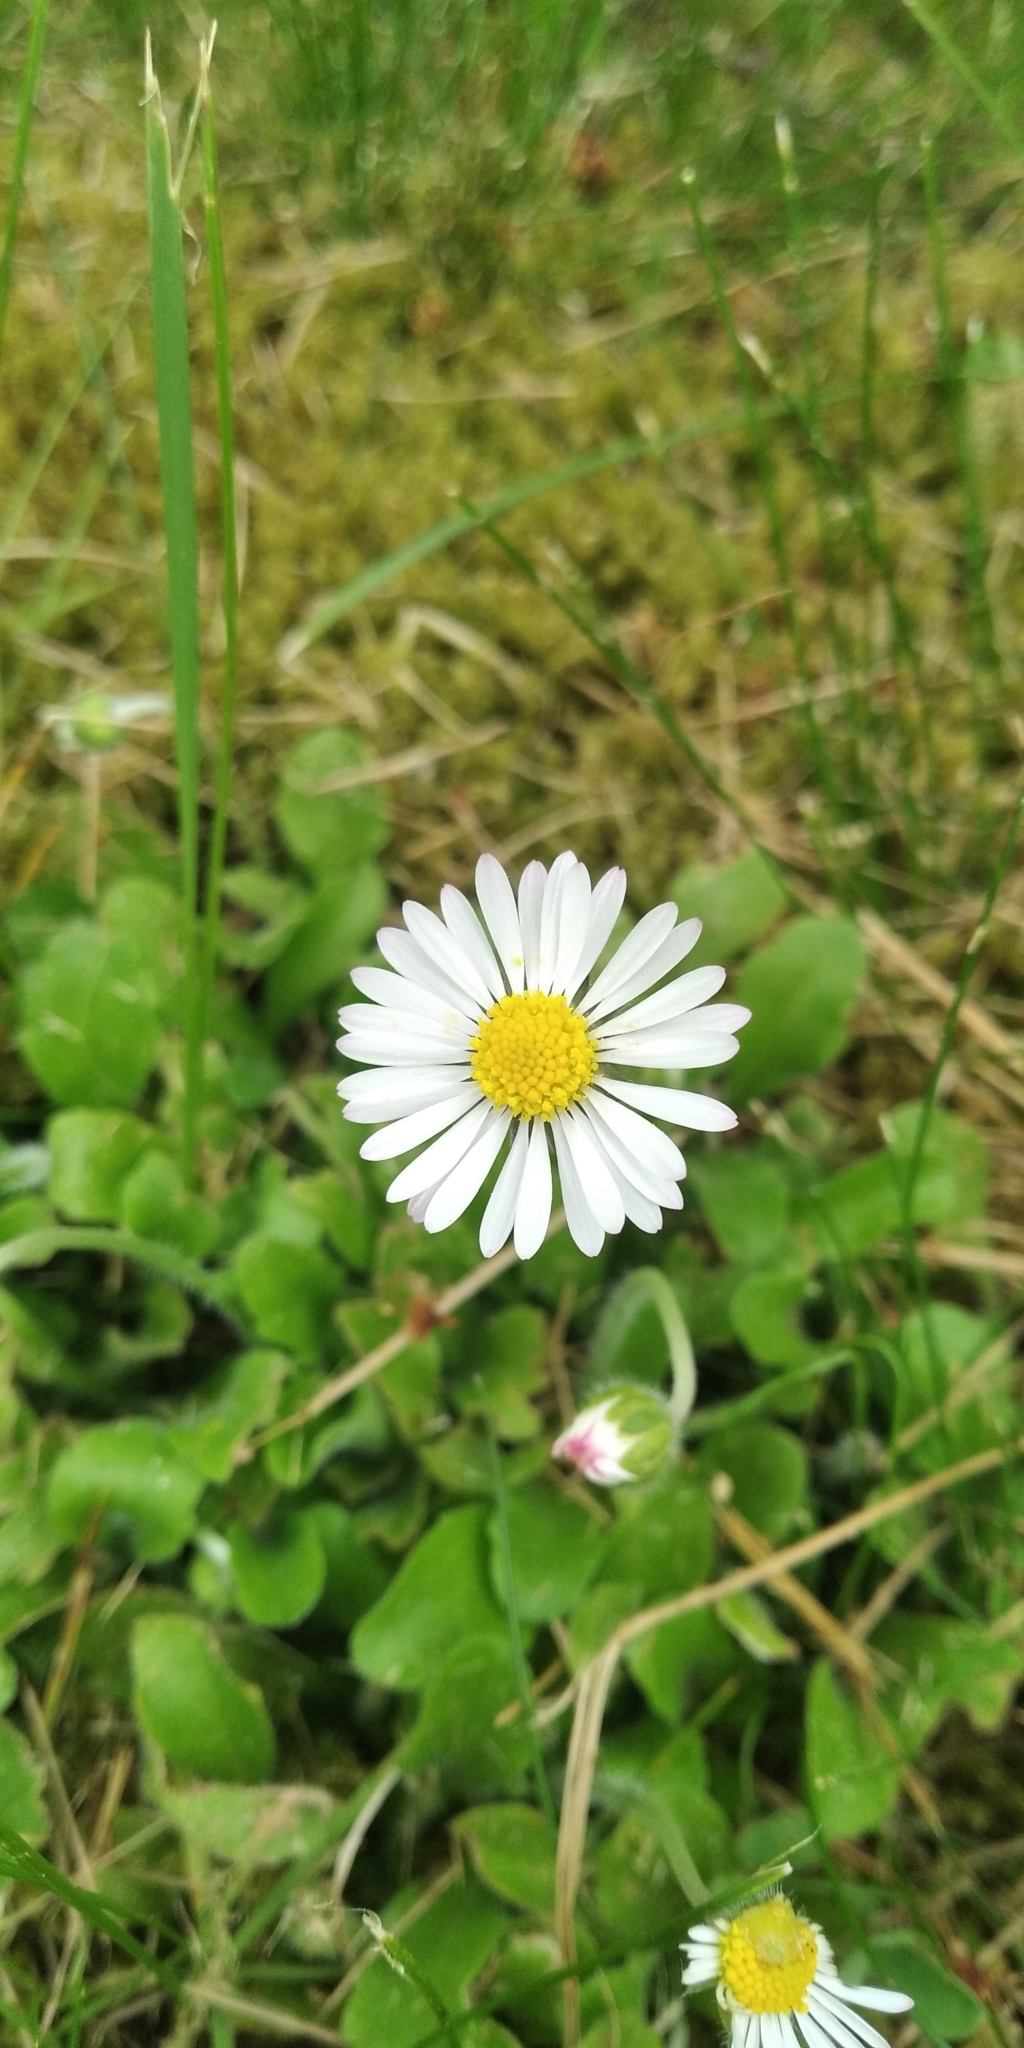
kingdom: Plantae
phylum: Tracheophyta
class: Magnoliopsida
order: Asterales
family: Asteraceae
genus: Bellis
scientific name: Bellis perennis
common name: Lawndaisy
